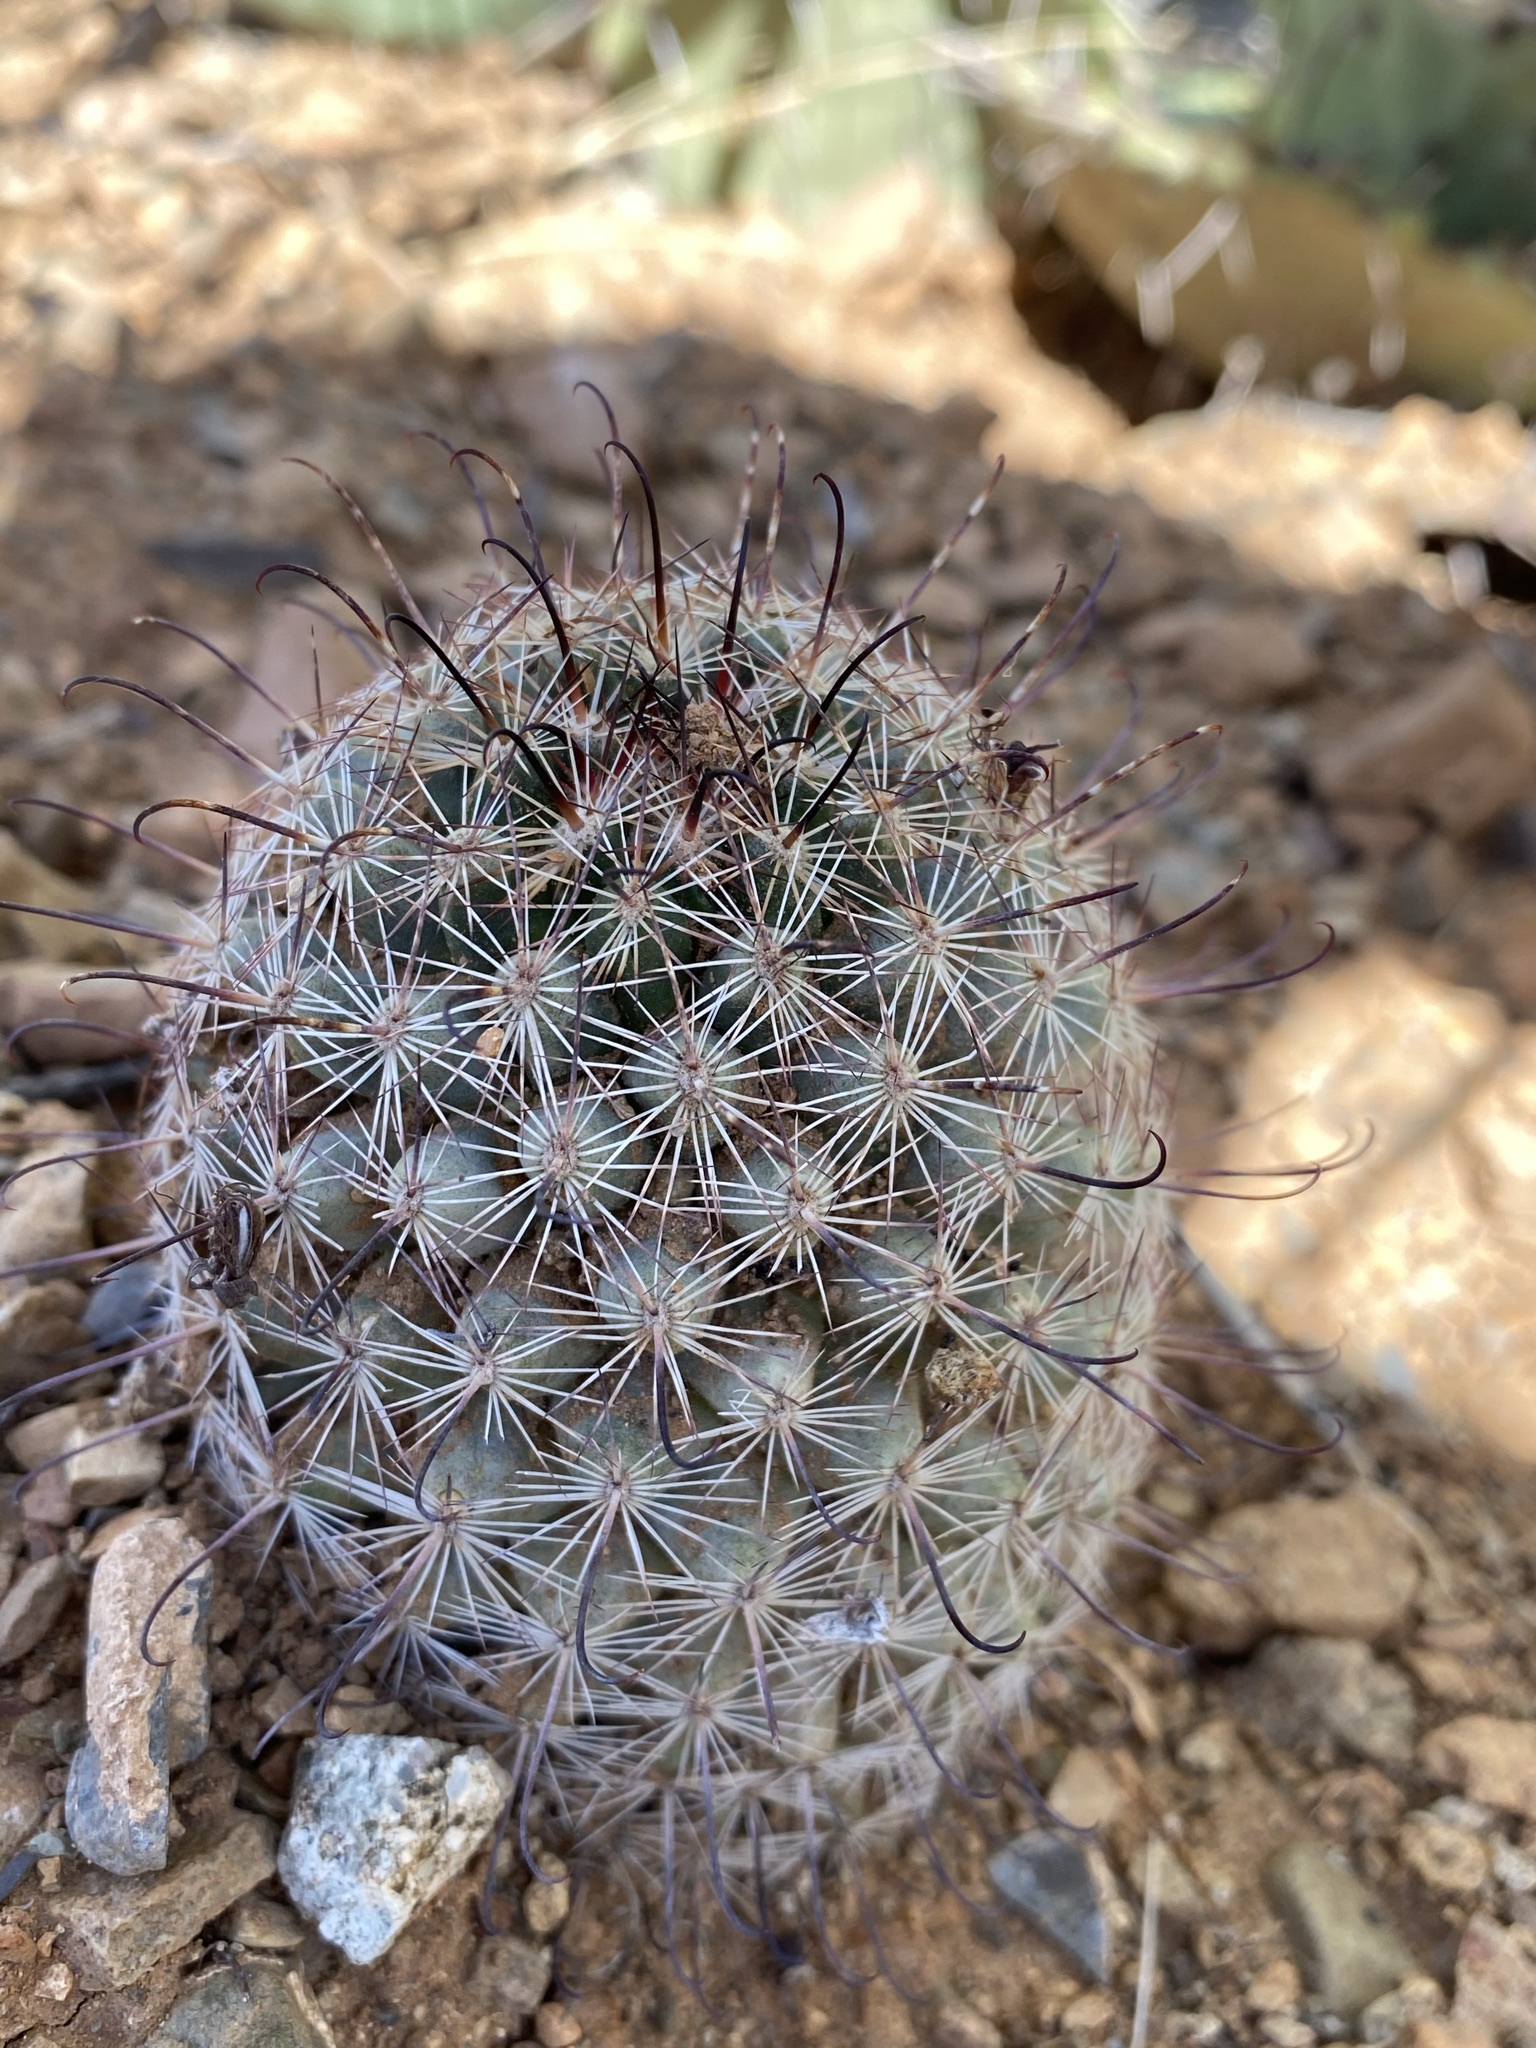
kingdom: Plantae
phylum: Tracheophyta
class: Magnoliopsida
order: Caryophyllales
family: Cactaceae
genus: Cochemiea
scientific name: Cochemiea grahamii
